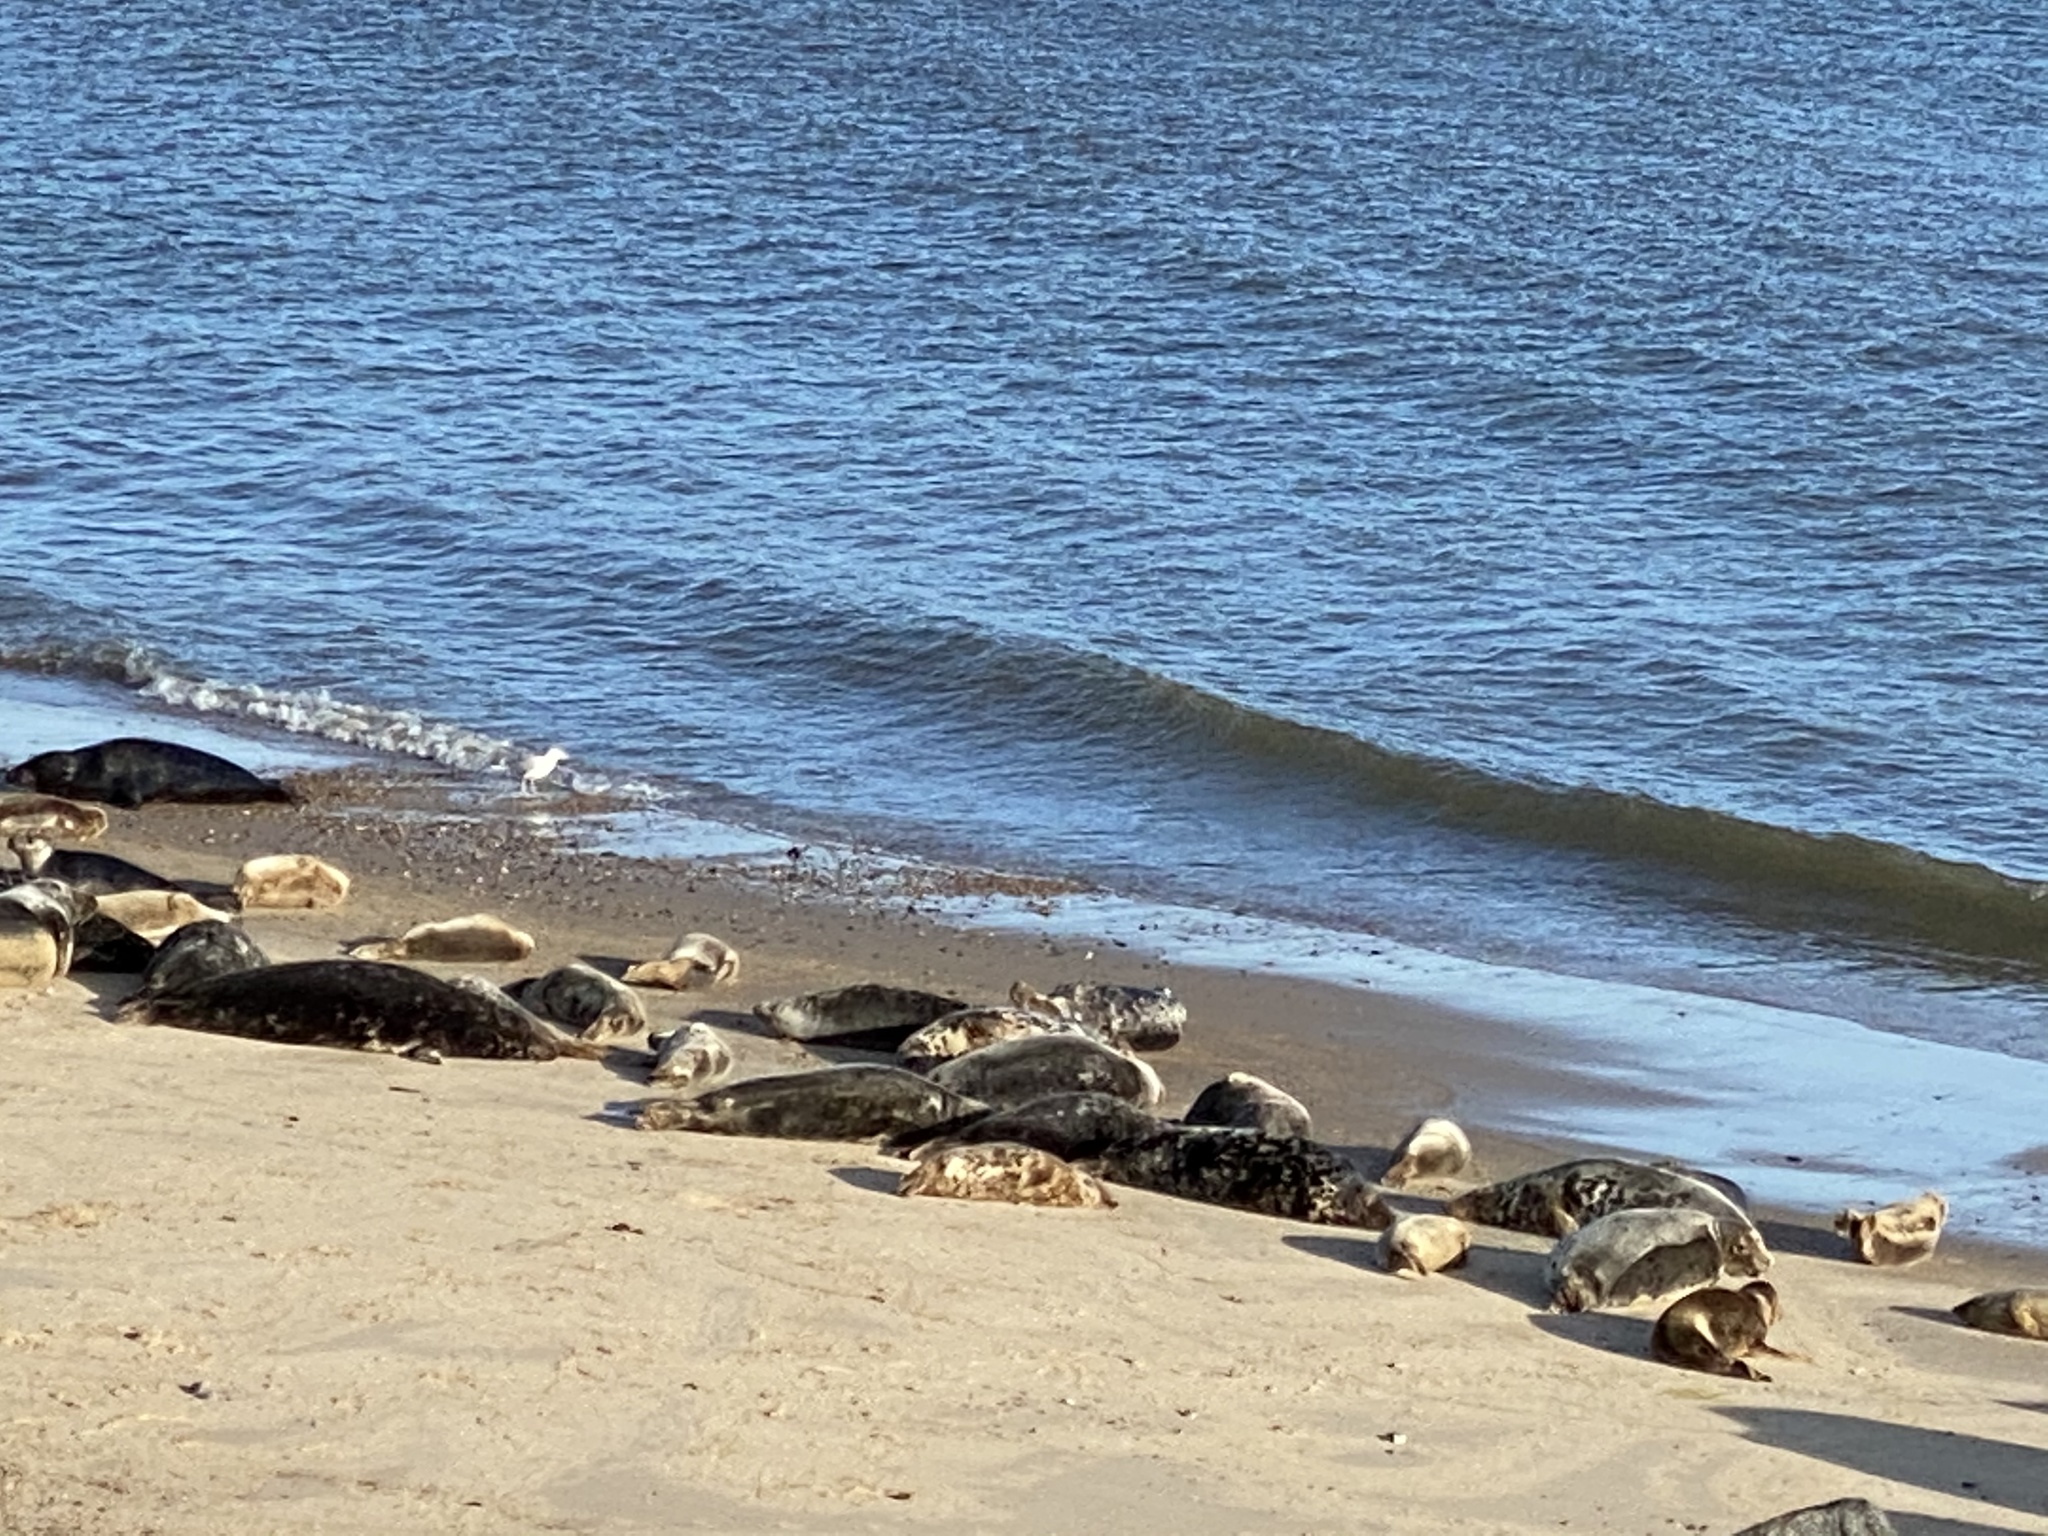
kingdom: Animalia
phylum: Chordata
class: Mammalia
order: Carnivora
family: Phocidae
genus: Halichoerus
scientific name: Halichoerus grypus
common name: Grey seal
